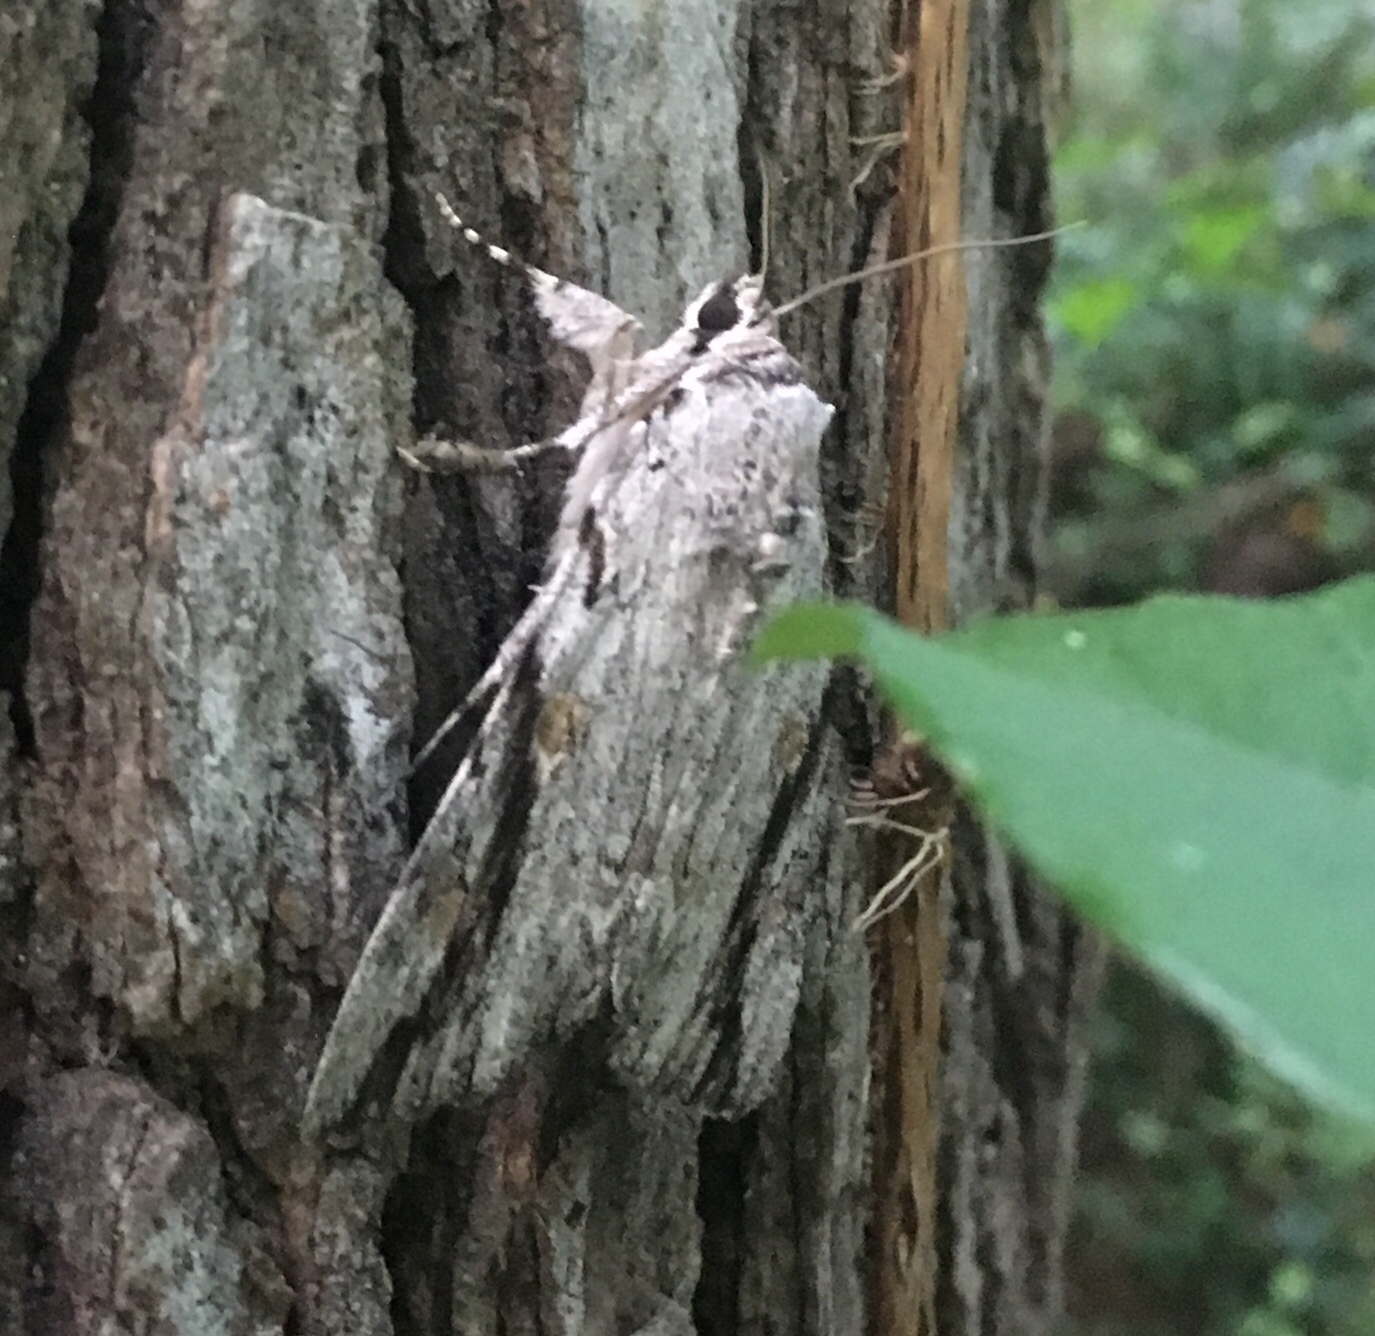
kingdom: Animalia
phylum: Arthropoda
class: Insecta
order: Lepidoptera
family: Erebidae
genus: Catocala
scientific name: Catocala maestosa
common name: Sad underwing
